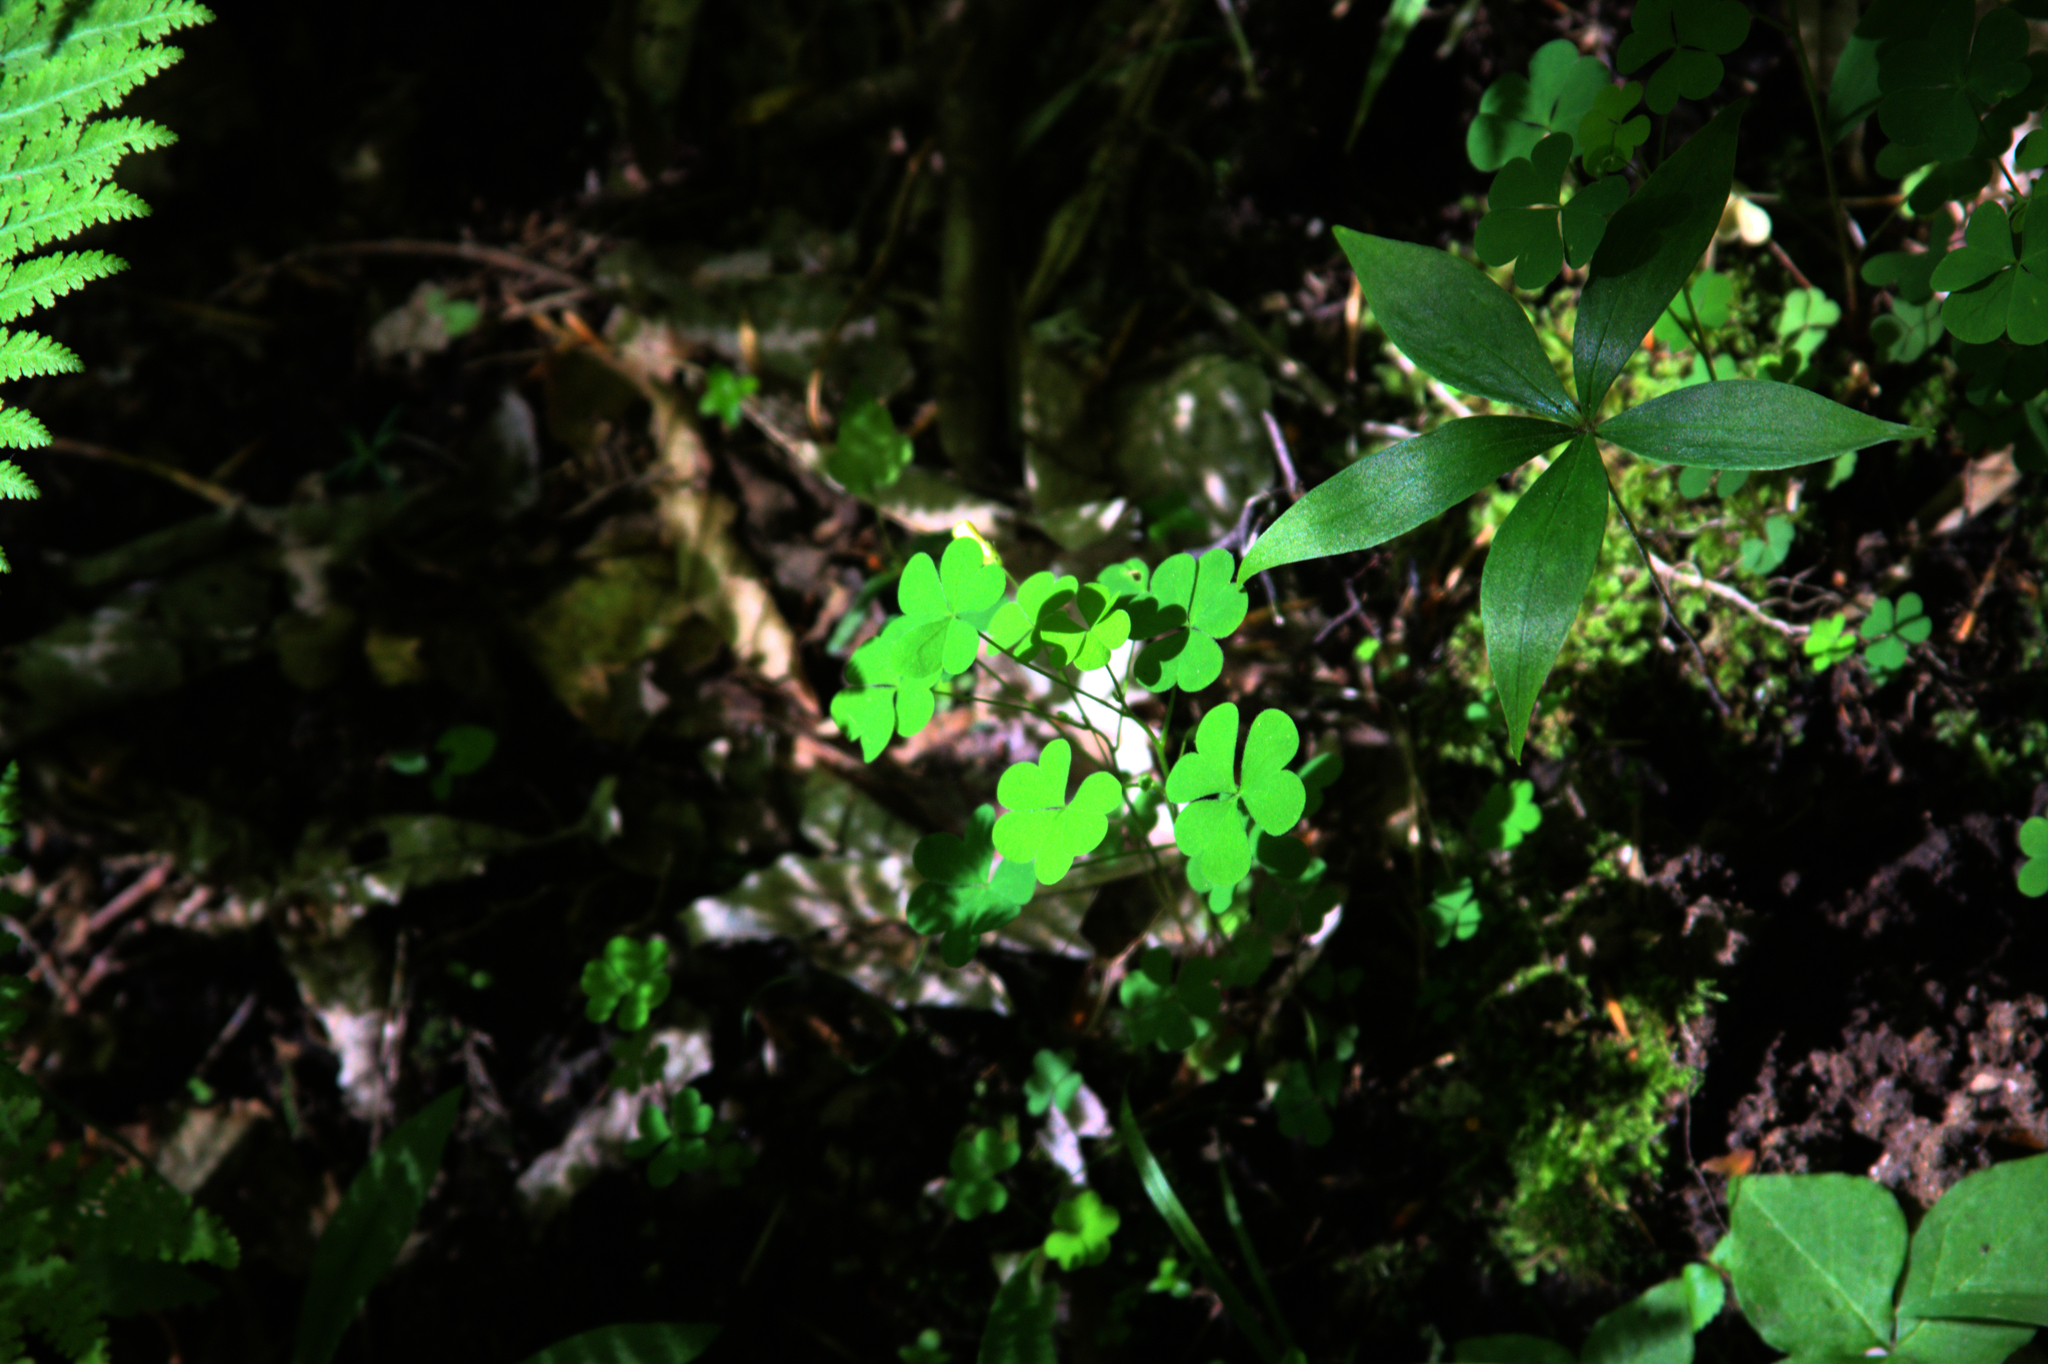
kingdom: Plantae
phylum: Tracheophyta
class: Liliopsida
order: Liliales
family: Liliaceae
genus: Medeola
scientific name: Medeola virginiana
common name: Indian cucumber-root
